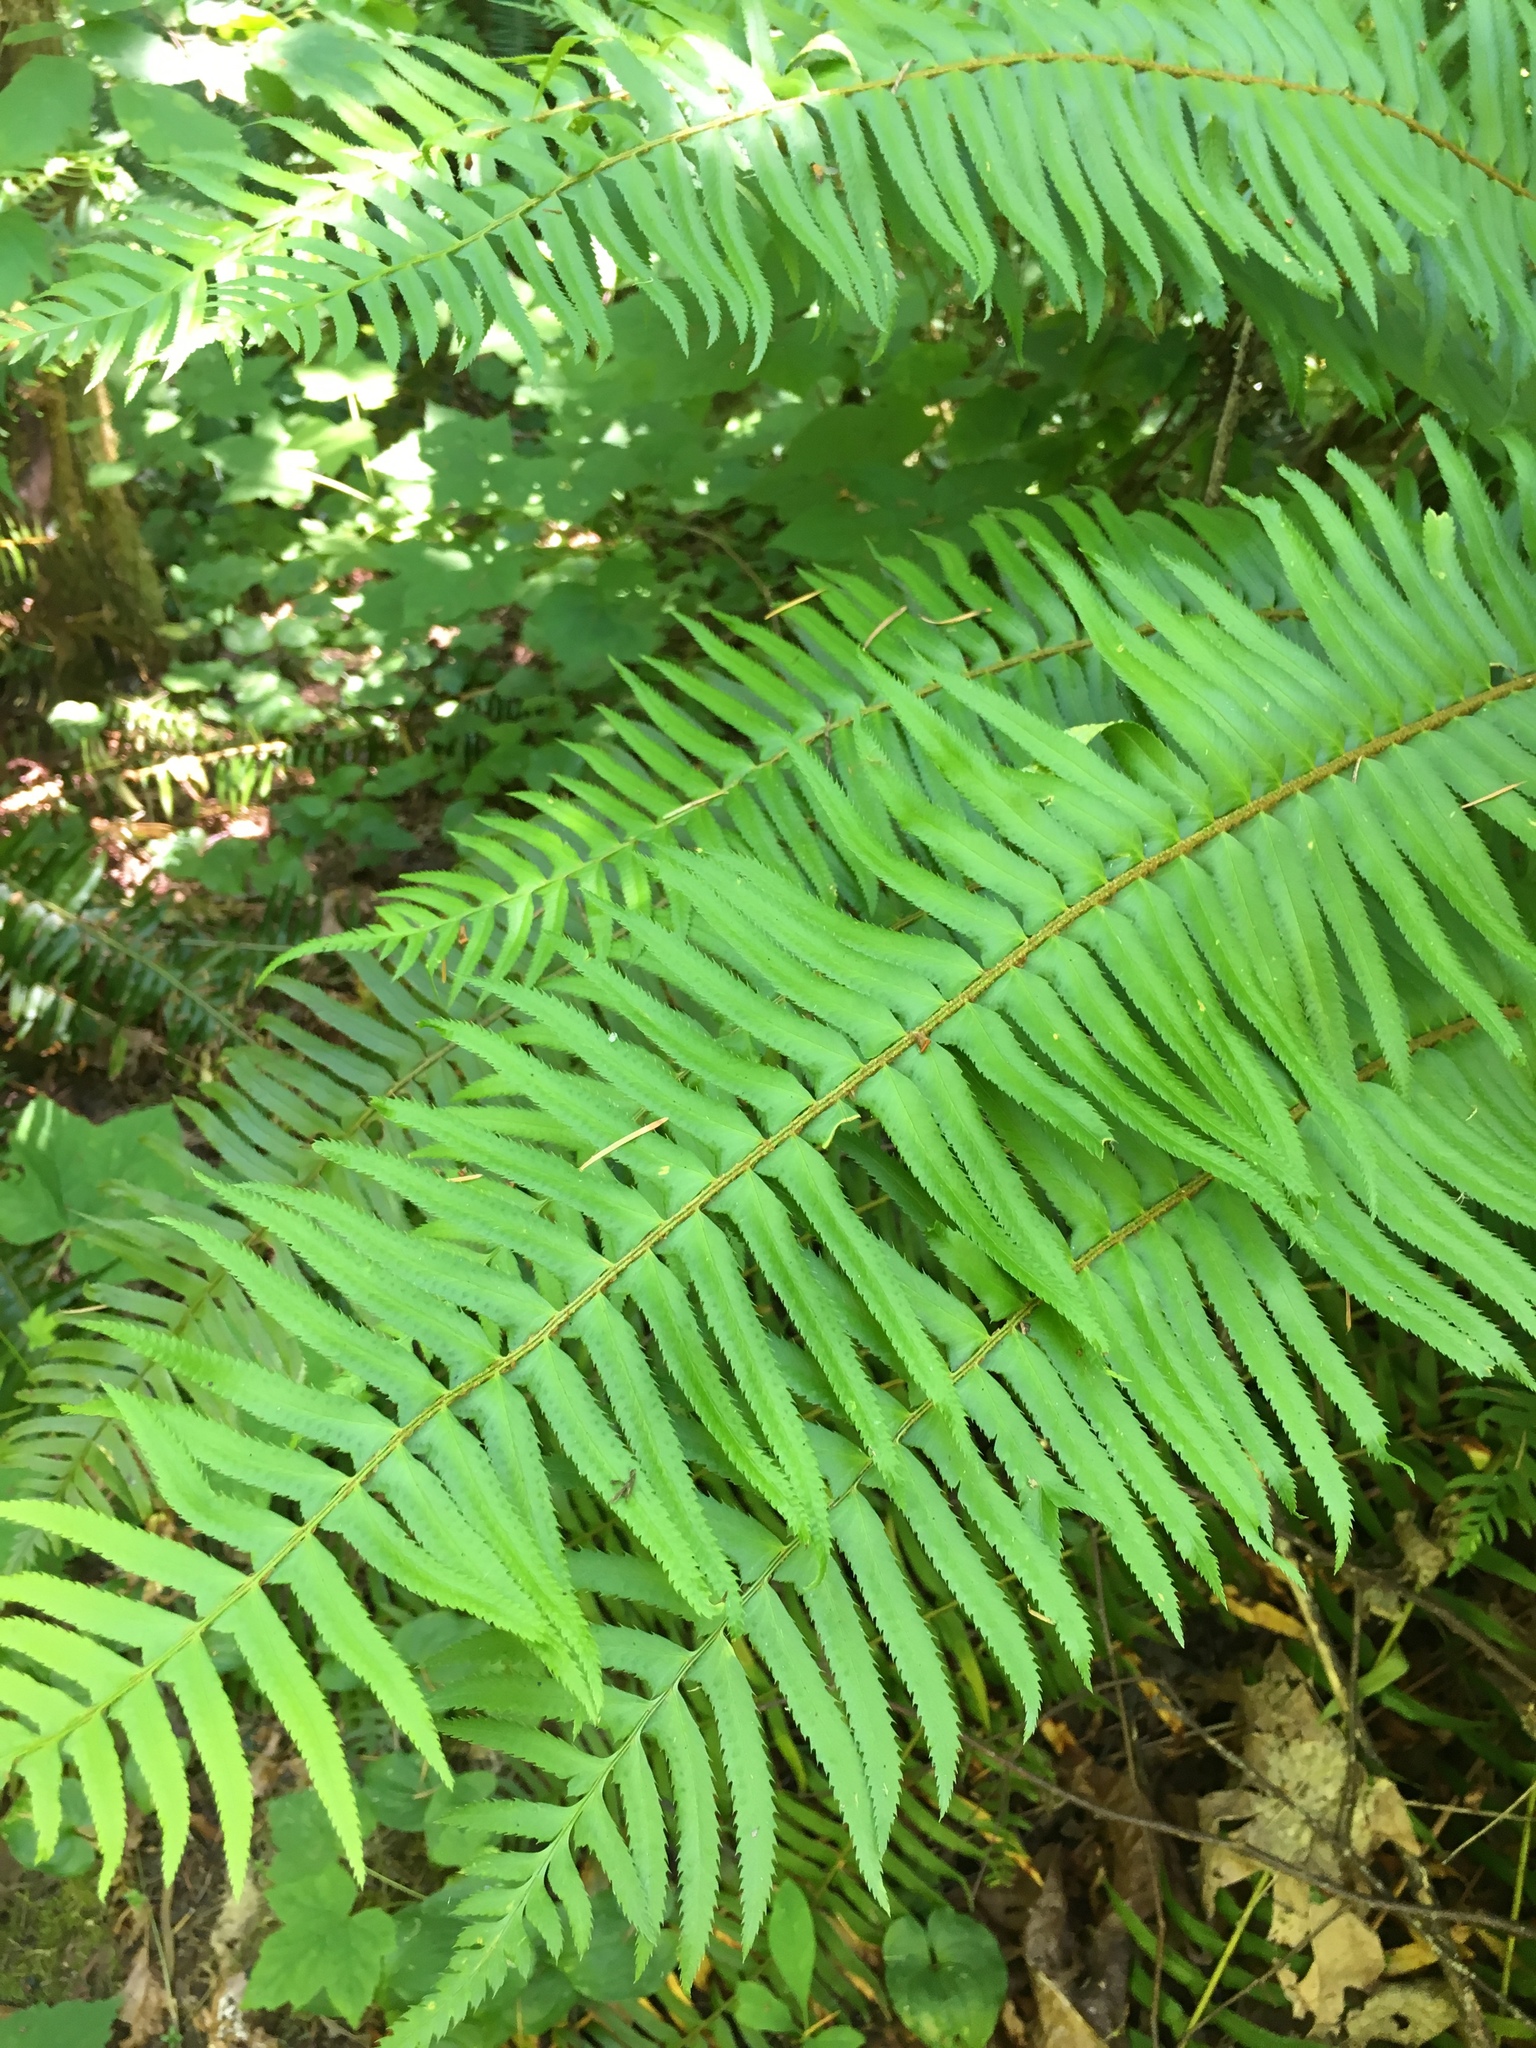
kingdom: Plantae
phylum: Tracheophyta
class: Polypodiopsida
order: Polypodiales
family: Dryopteridaceae
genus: Polystichum
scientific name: Polystichum munitum
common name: Western sword-fern
